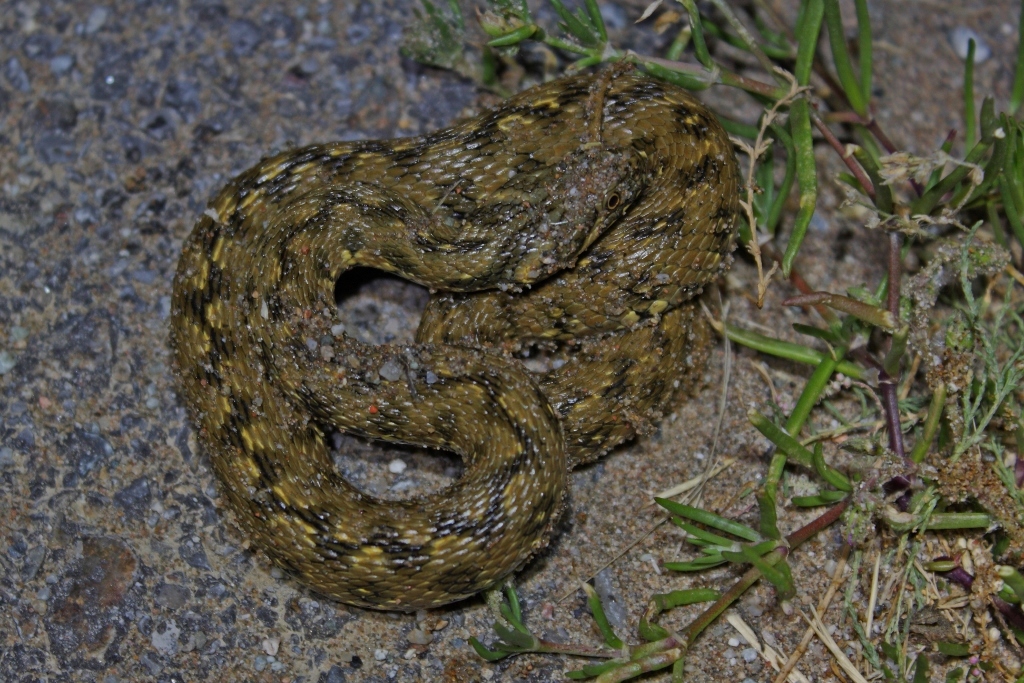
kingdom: Animalia
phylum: Chordata
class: Squamata
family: Colubridae
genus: Natrix
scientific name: Natrix maura
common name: Viperine water snake
